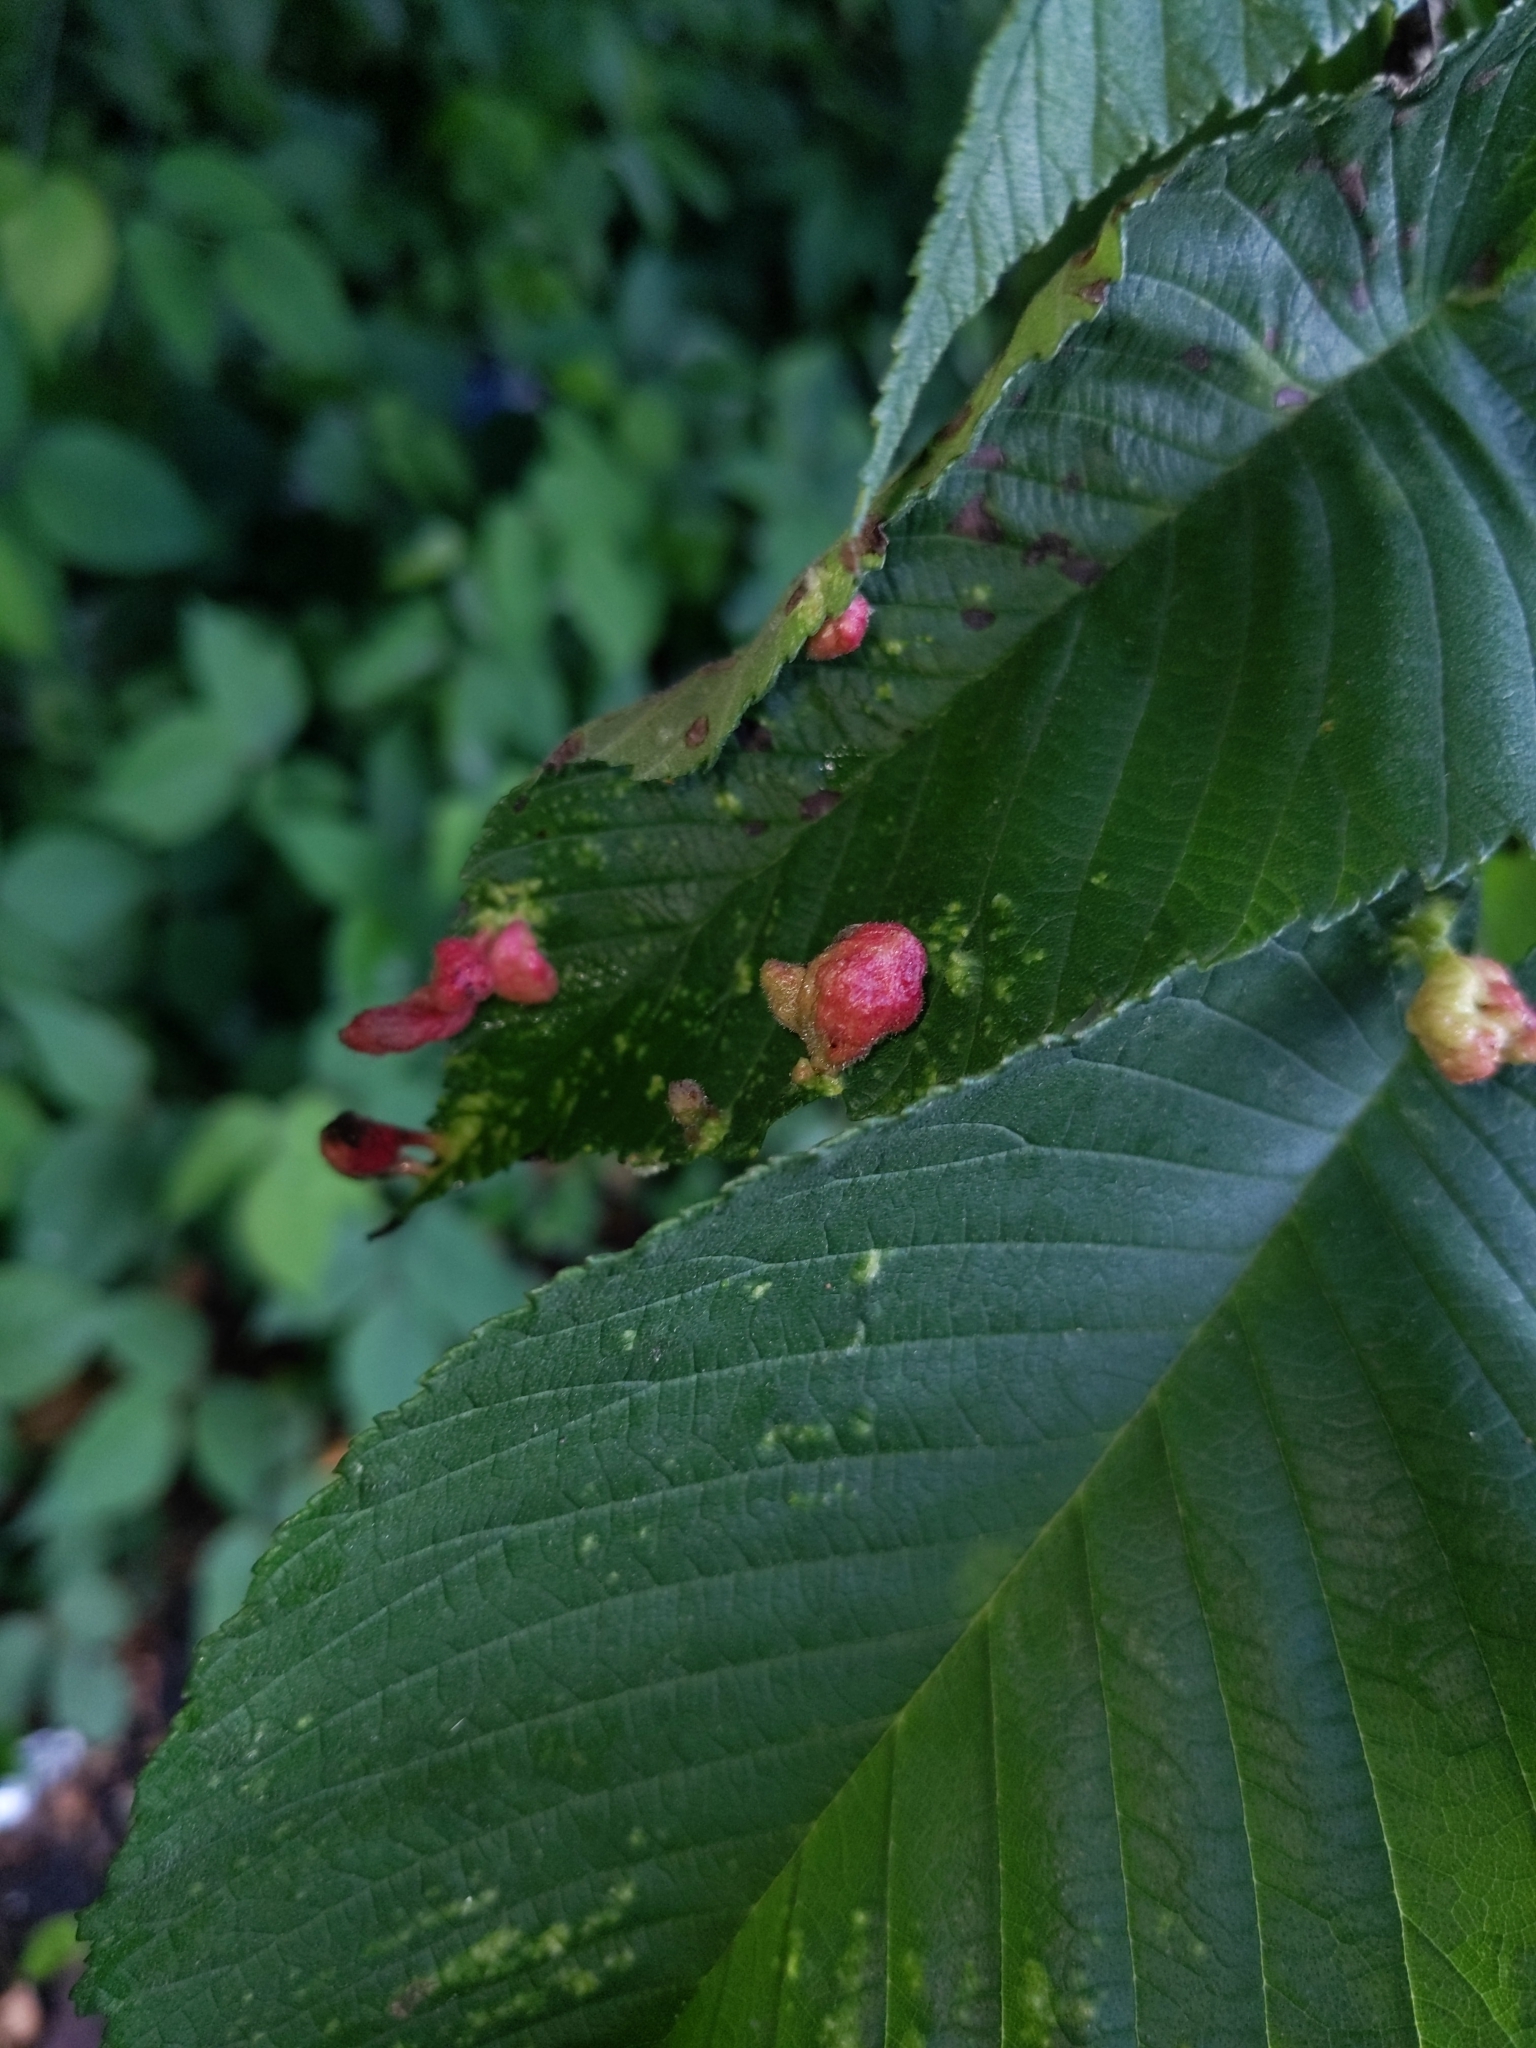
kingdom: Animalia
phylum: Arthropoda
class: Insecta
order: Hemiptera
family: Aphididae
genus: Tetraneura
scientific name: Tetraneura nigriabdominalis
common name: Aphid
